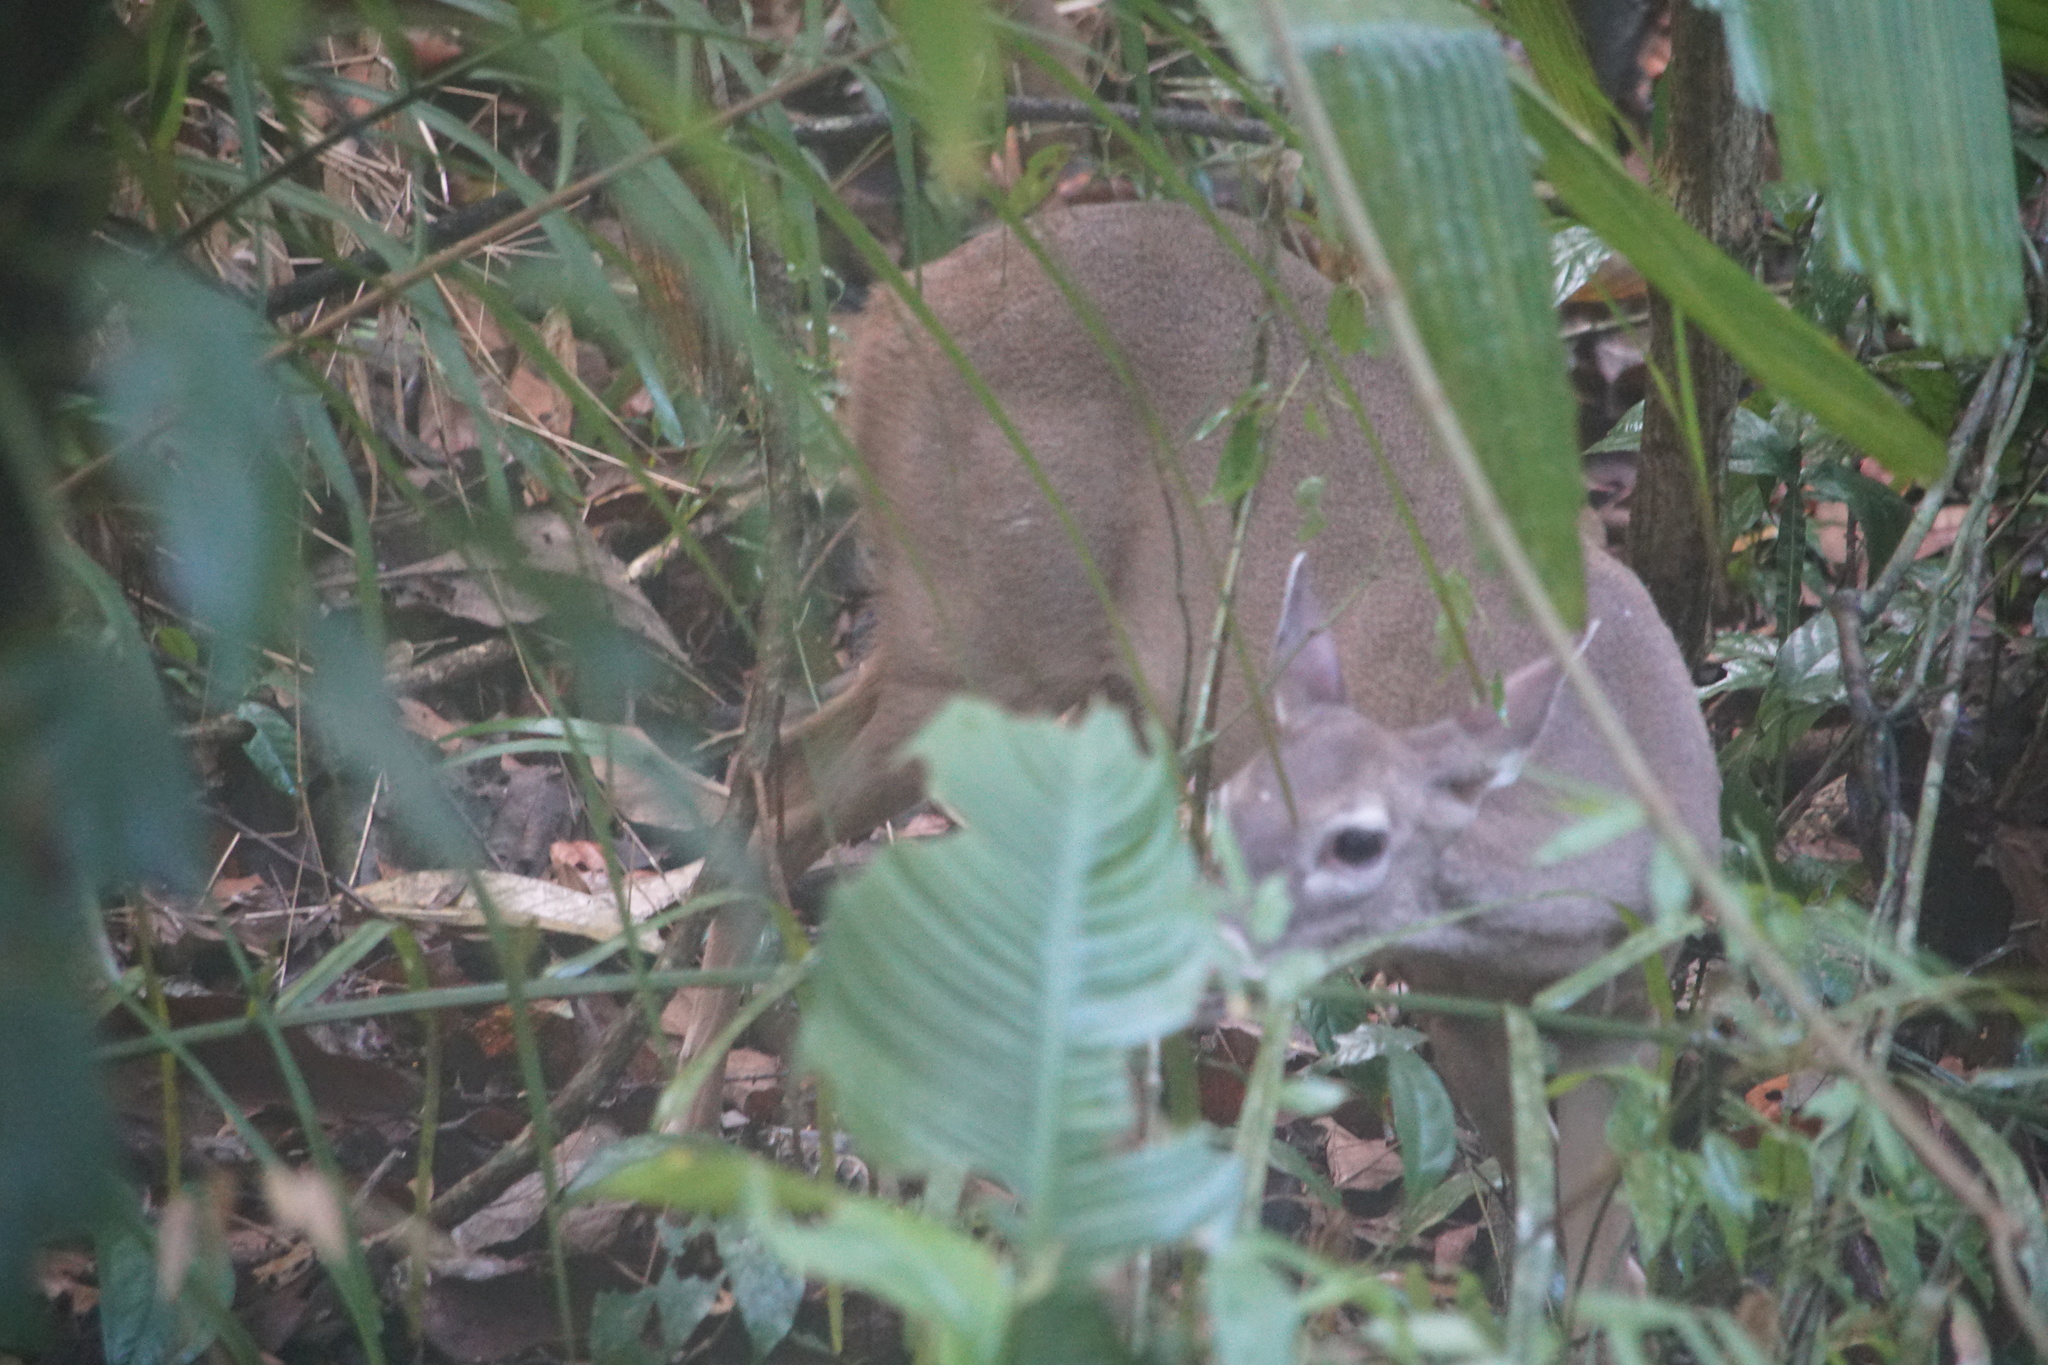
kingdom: Animalia
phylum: Chordata
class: Mammalia
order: Artiodactyla
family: Cervidae
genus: Odocoileus
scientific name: Odocoileus virginianus
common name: White-tailed deer
